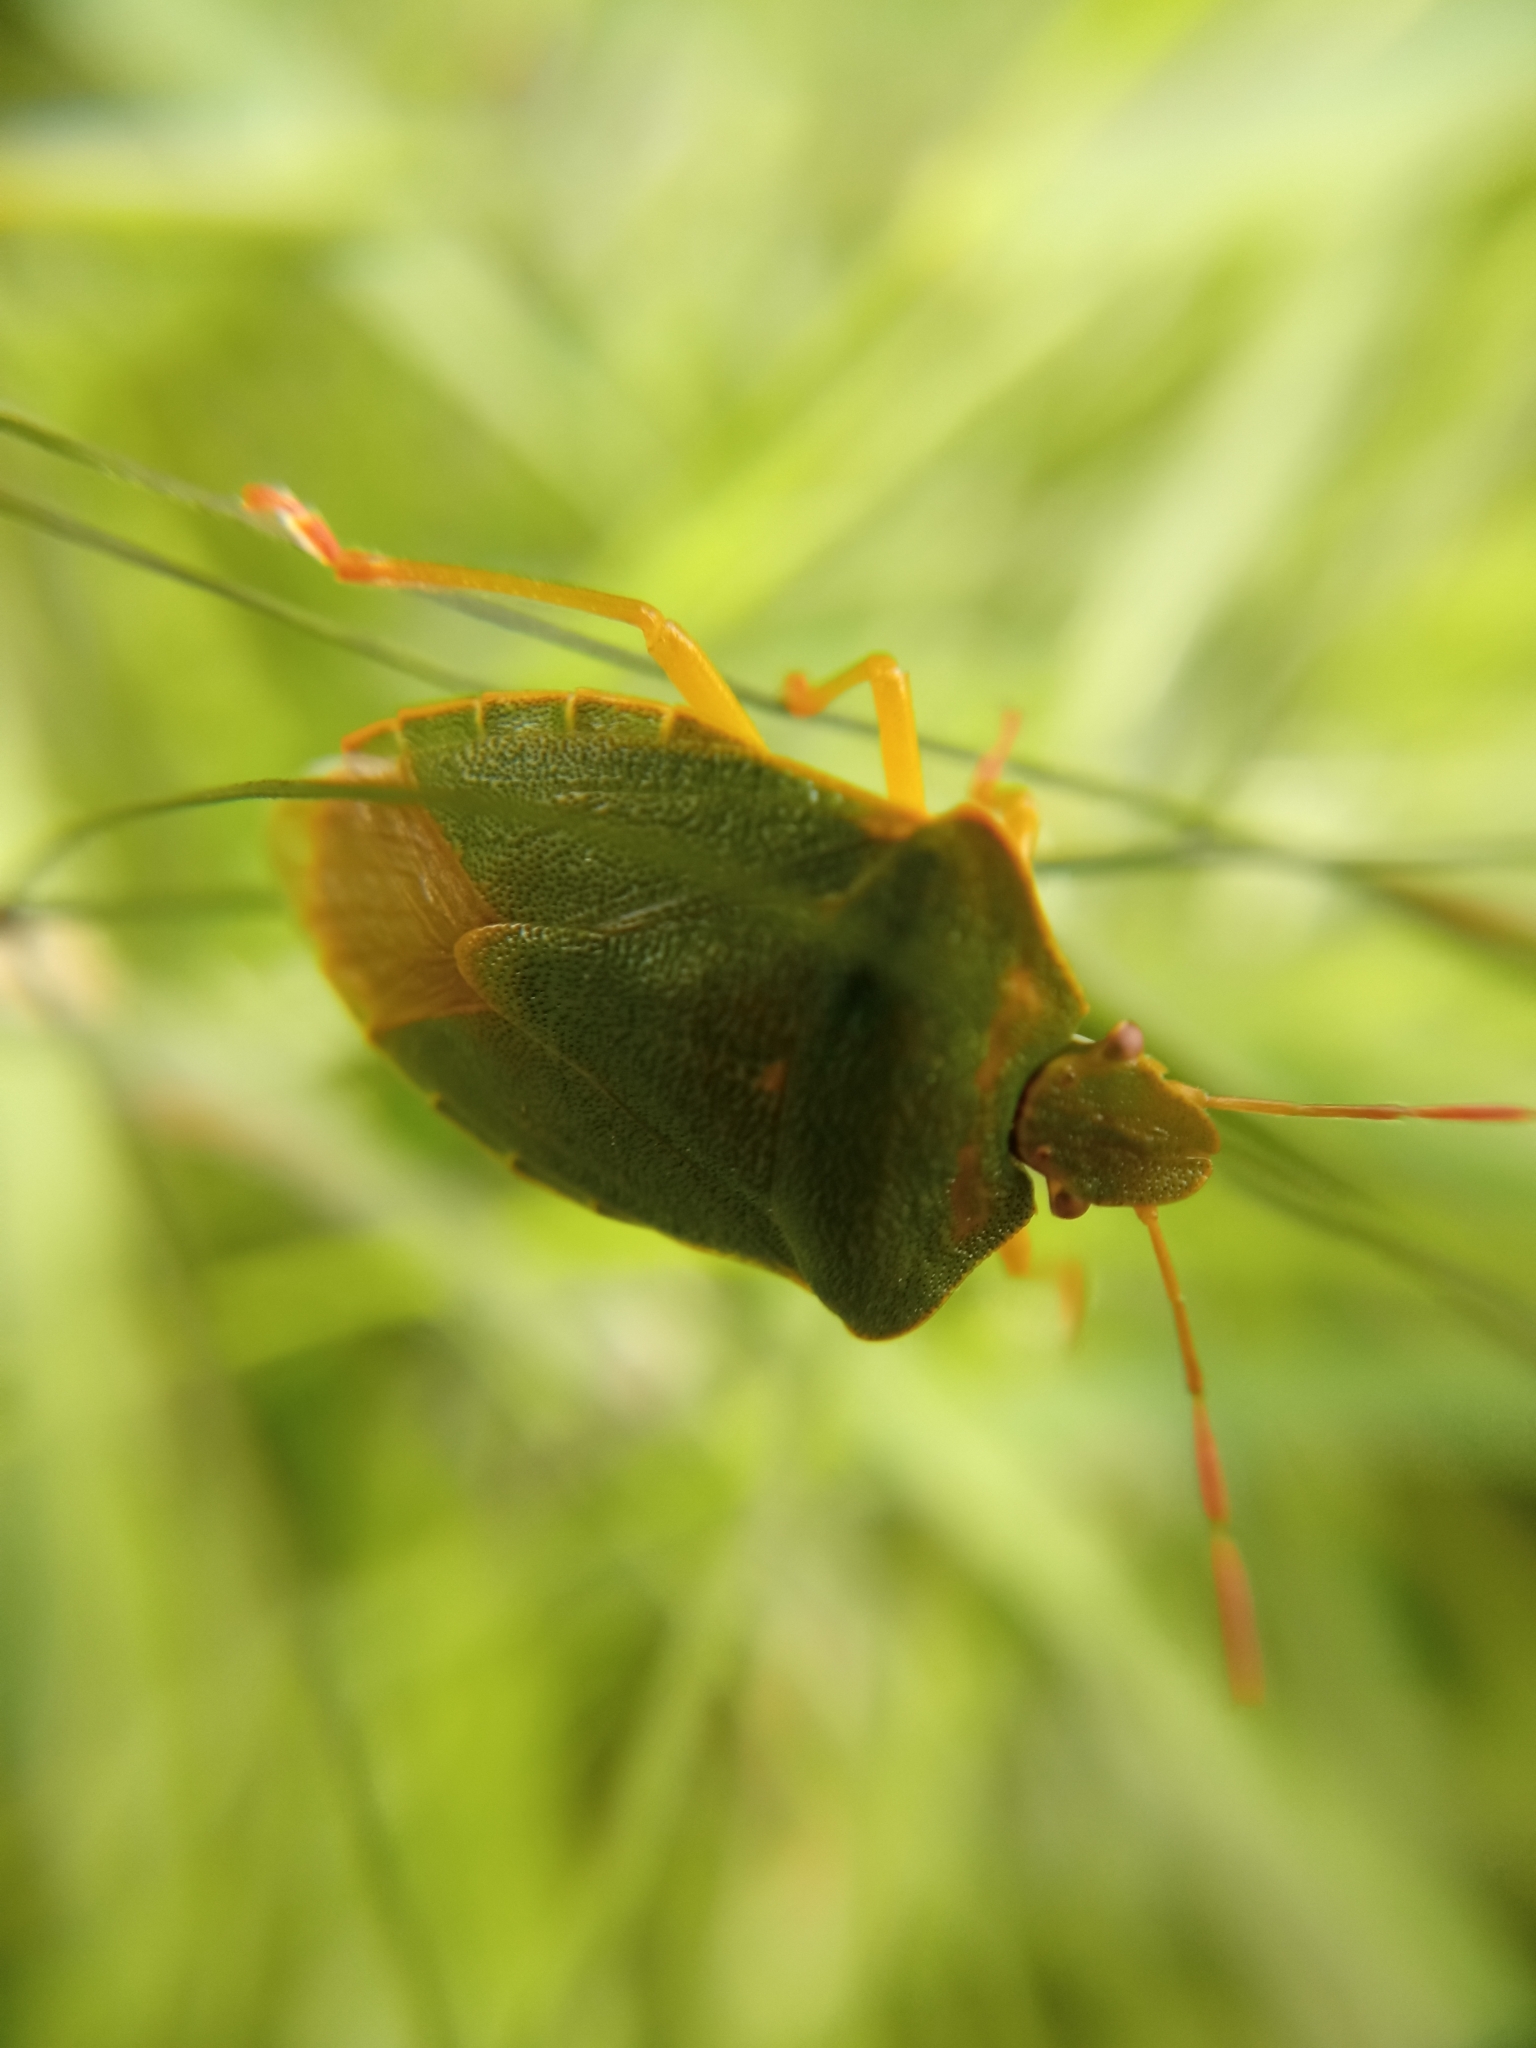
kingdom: Animalia
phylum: Arthropoda
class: Insecta
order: Hemiptera
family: Pentatomidae
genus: Palomena
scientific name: Palomena prasina
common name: Green shieldbug
